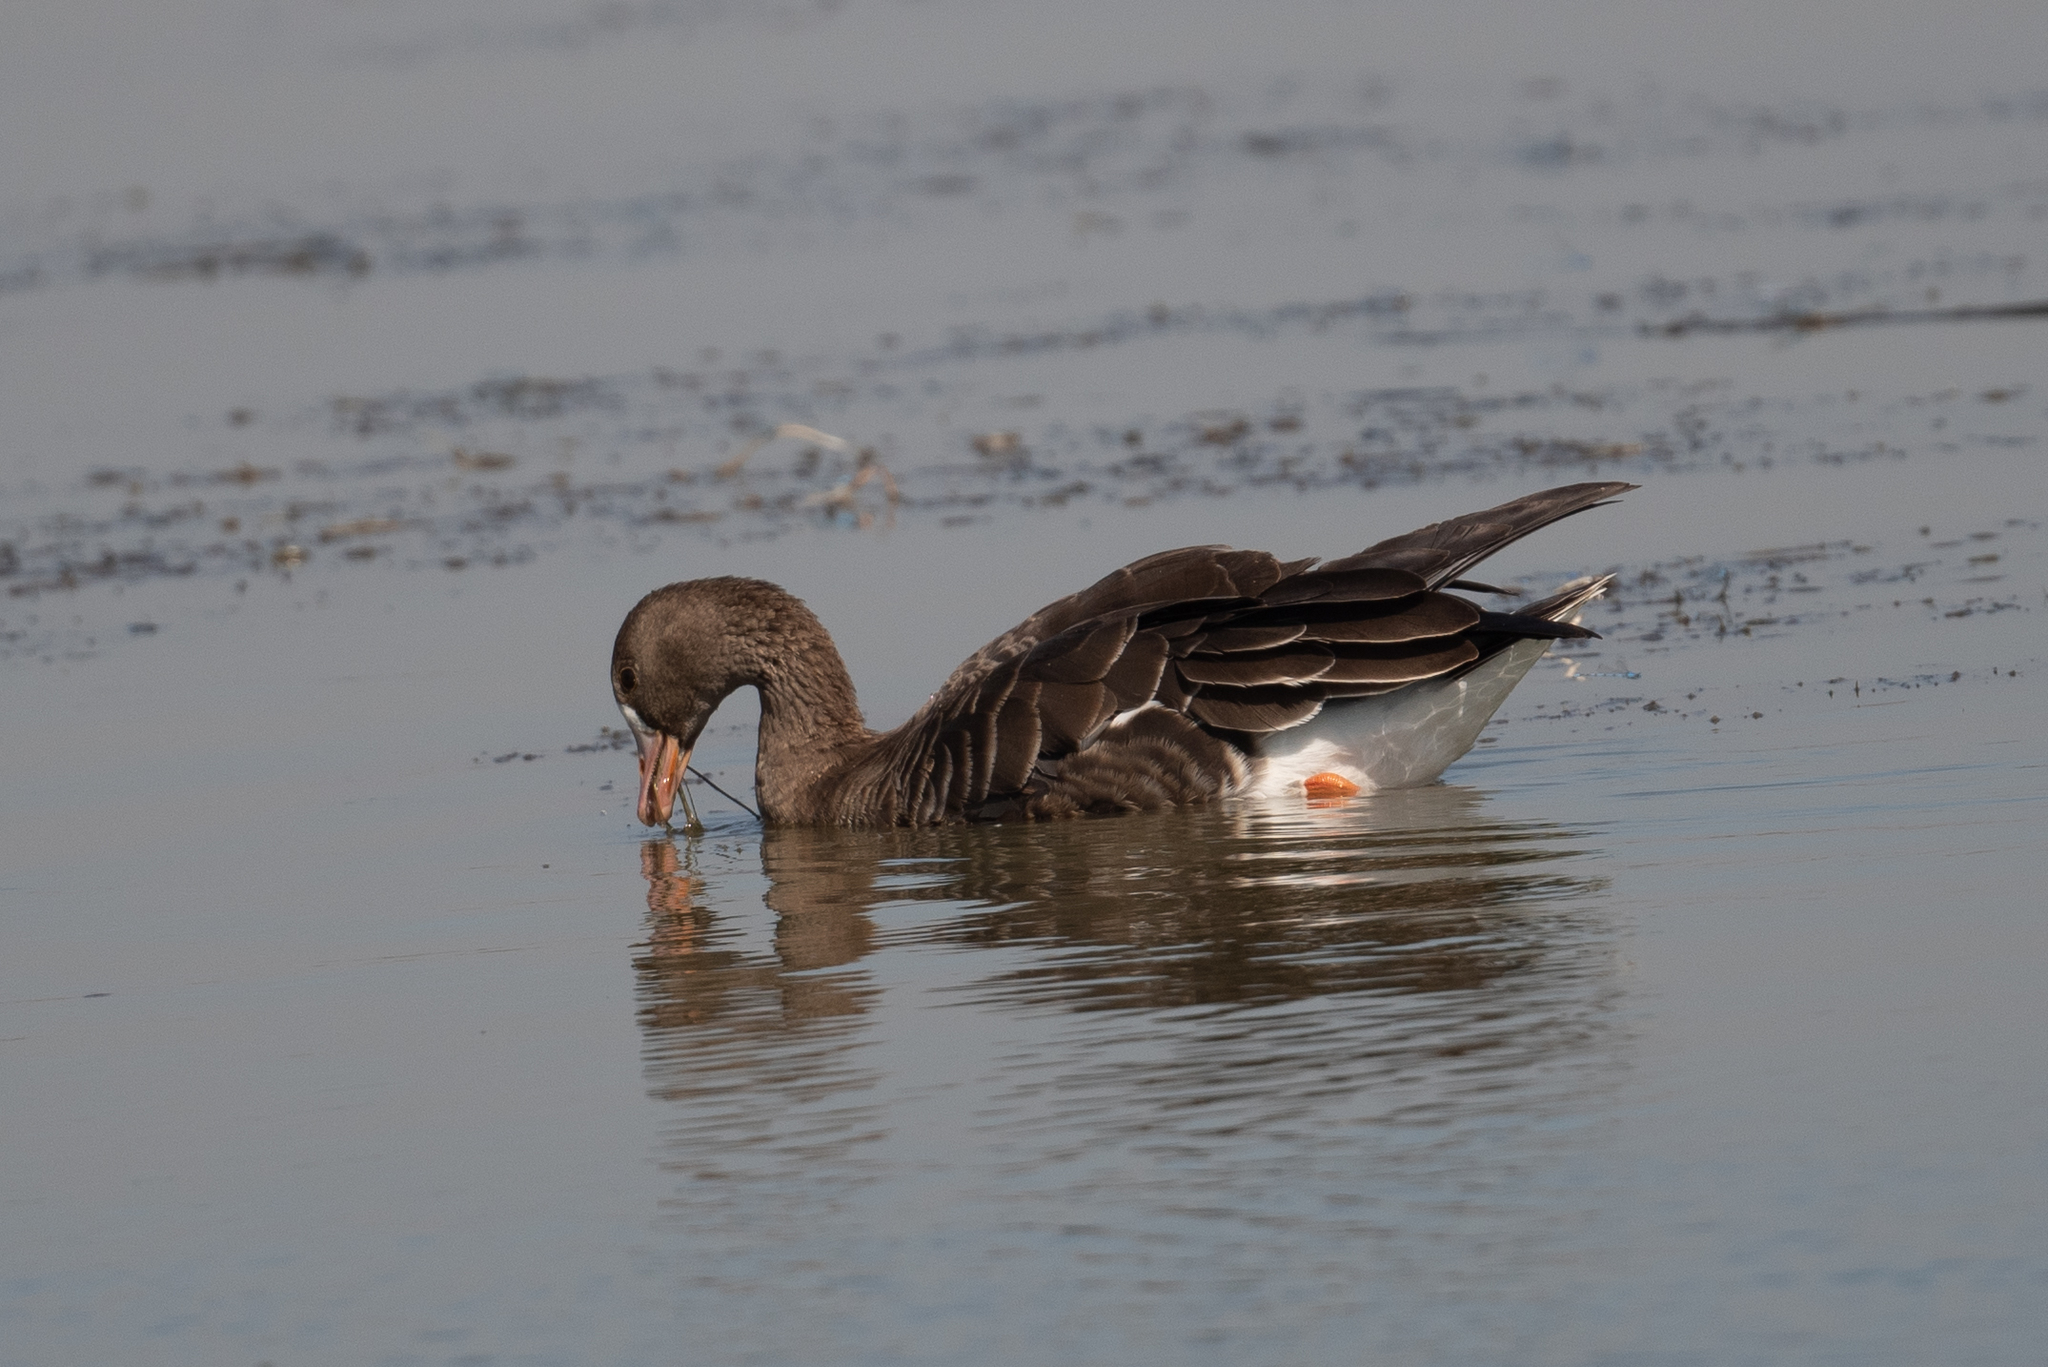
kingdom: Animalia
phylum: Chordata
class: Aves
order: Anseriformes
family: Anatidae
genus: Anser
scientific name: Anser albifrons
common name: Greater white-fronted goose
